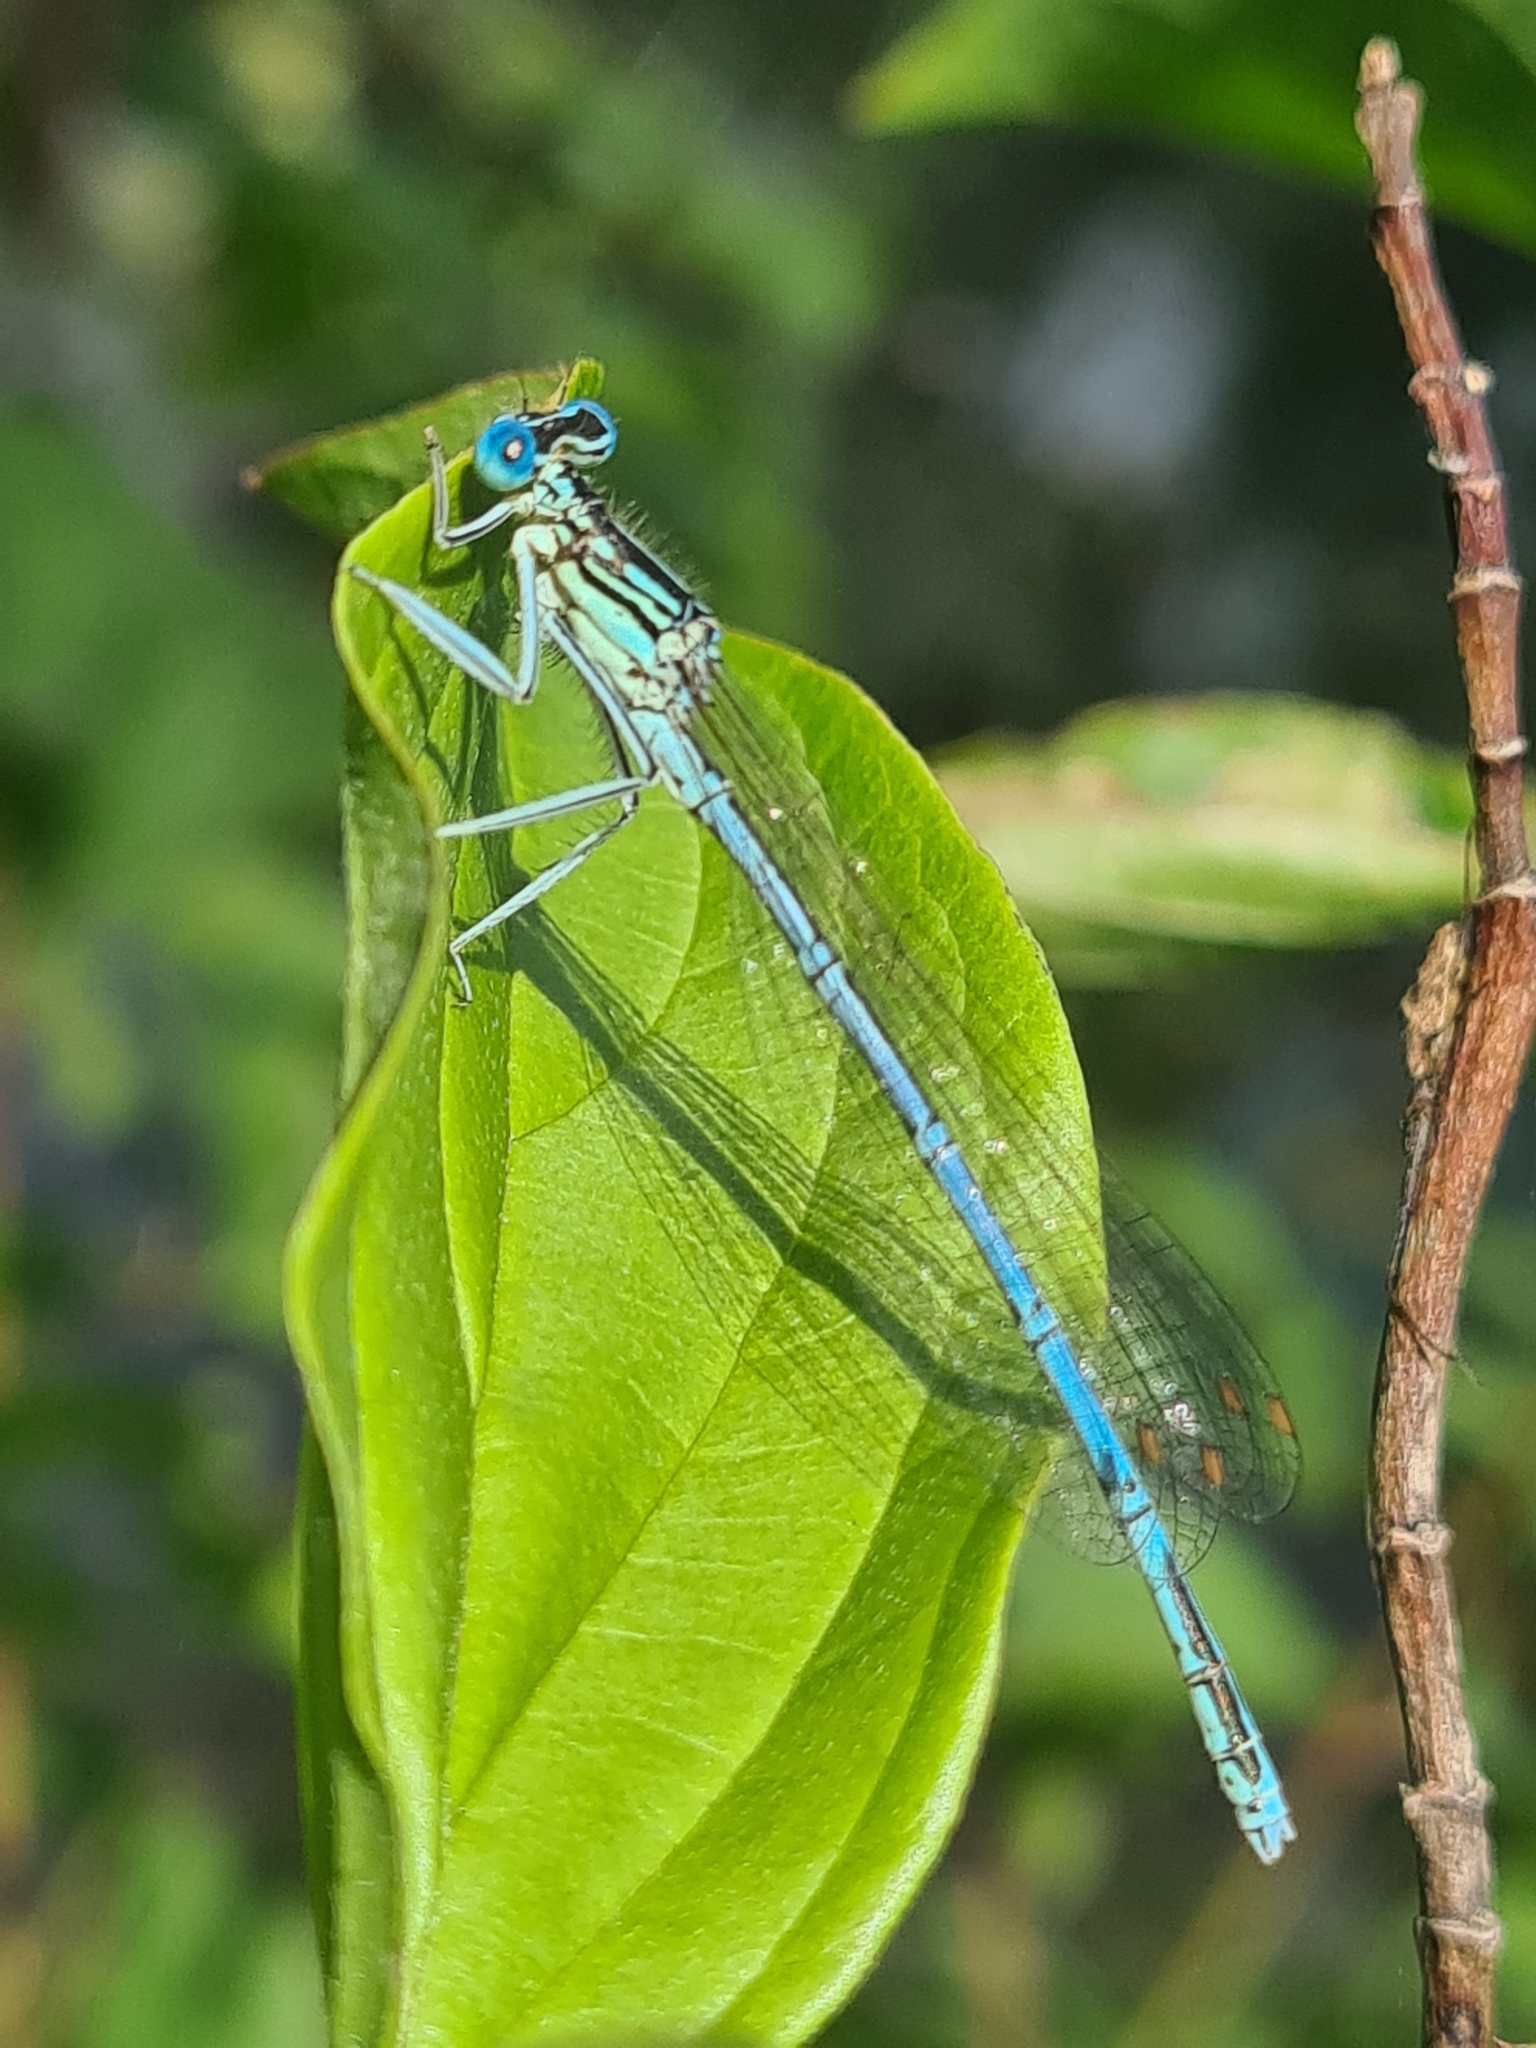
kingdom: Animalia
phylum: Arthropoda
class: Insecta
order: Odonata
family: Platycnemididae
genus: Platycnemis
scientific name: Platycnemis pennipes
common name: White-legged damselfly
